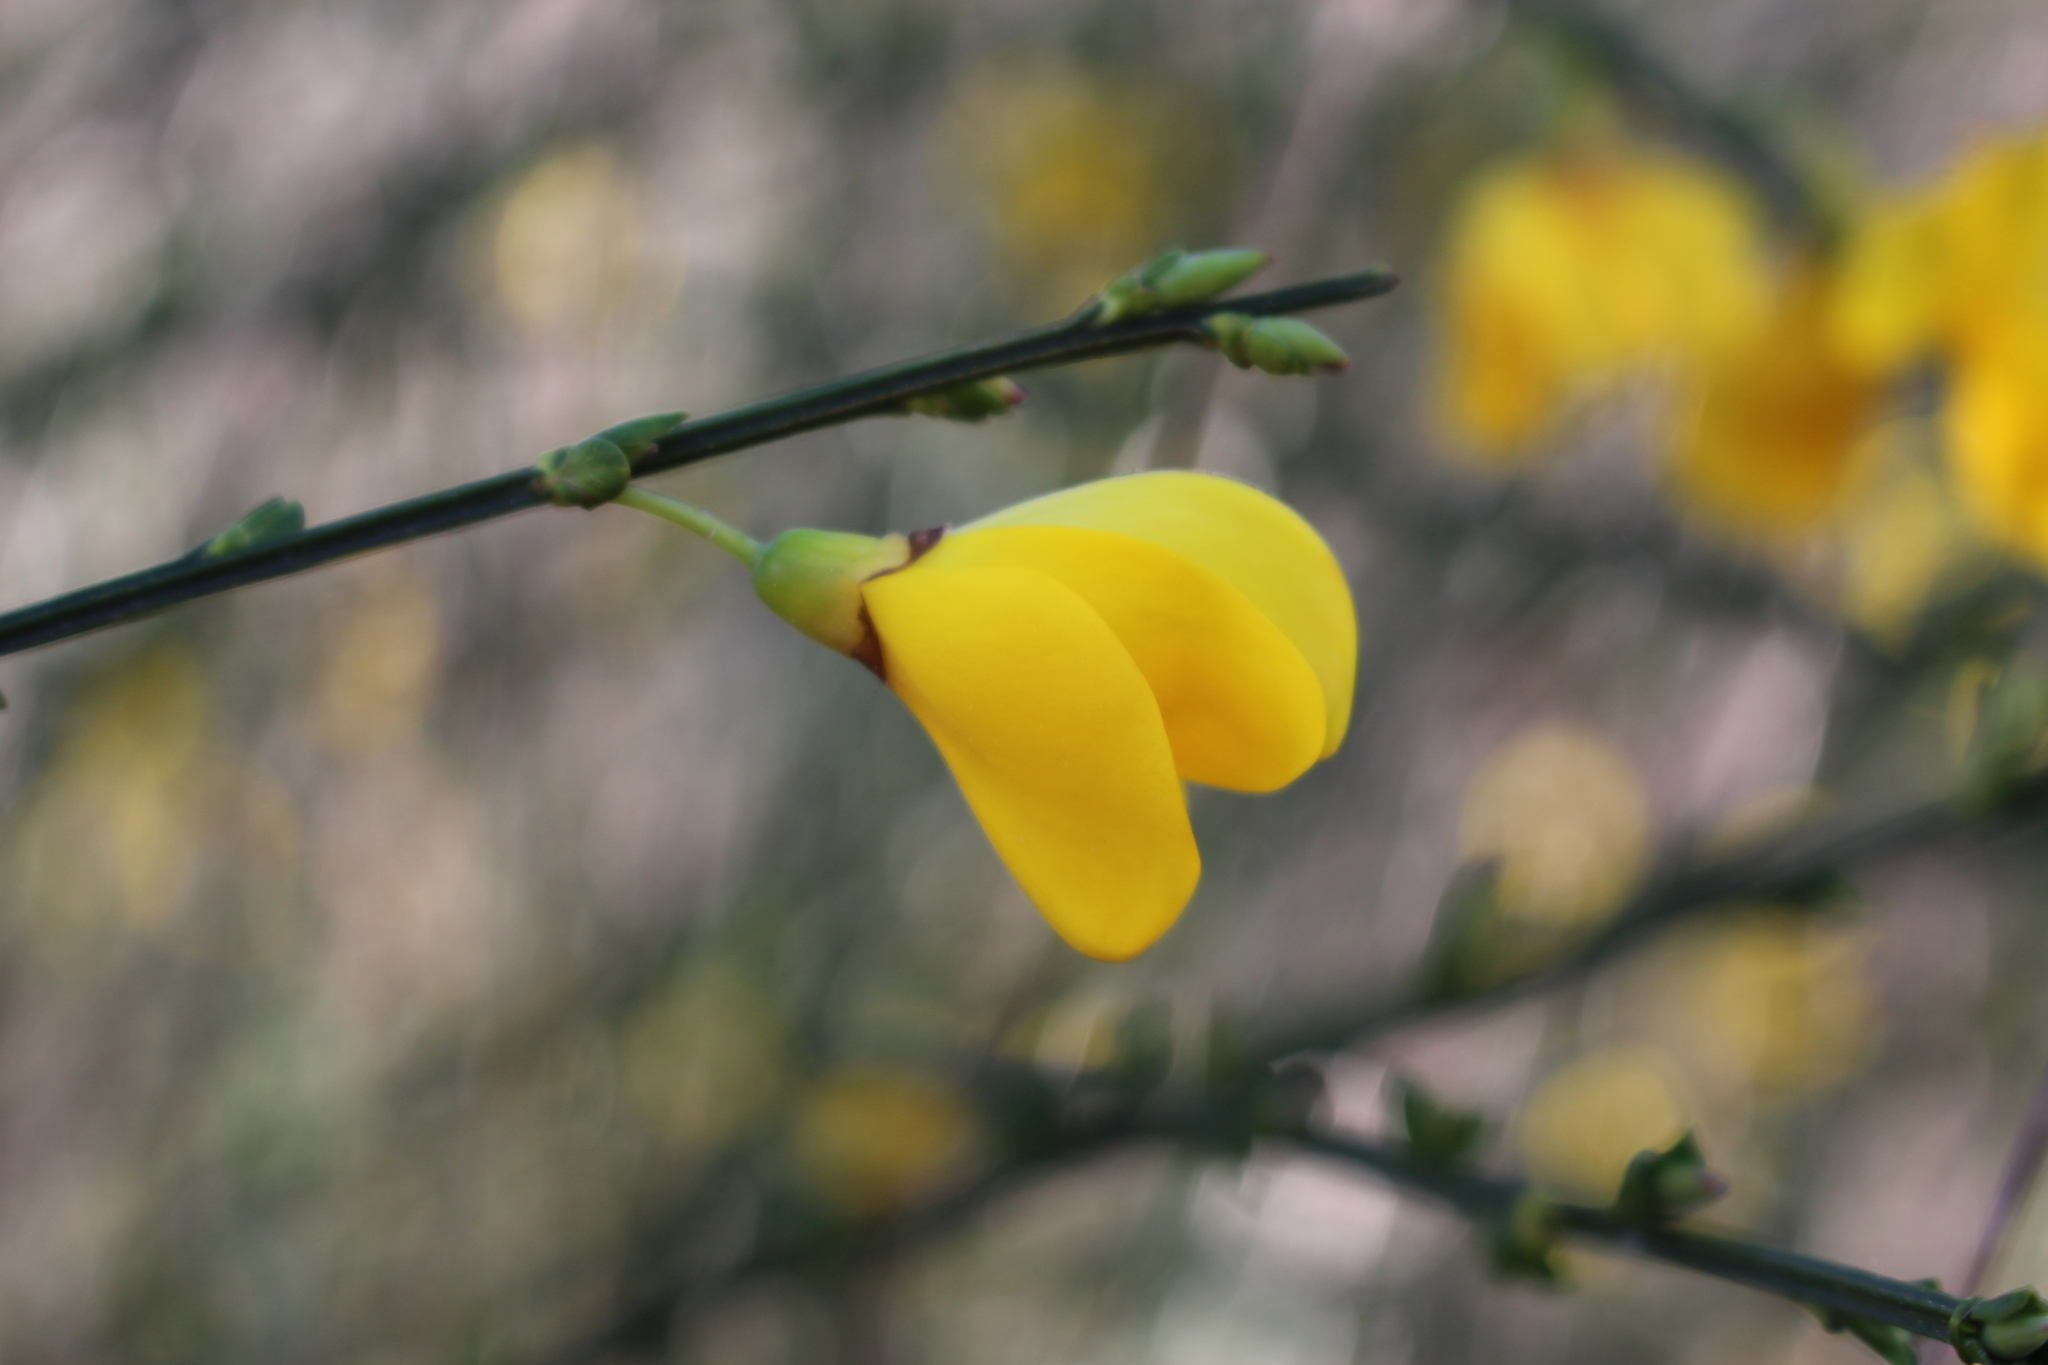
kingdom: Plantae
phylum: Tracheophyta
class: Magnoliopsida
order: Fabales
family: Fabaceae
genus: Cytisus
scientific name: Cytisus scoparius
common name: Scotch broom
